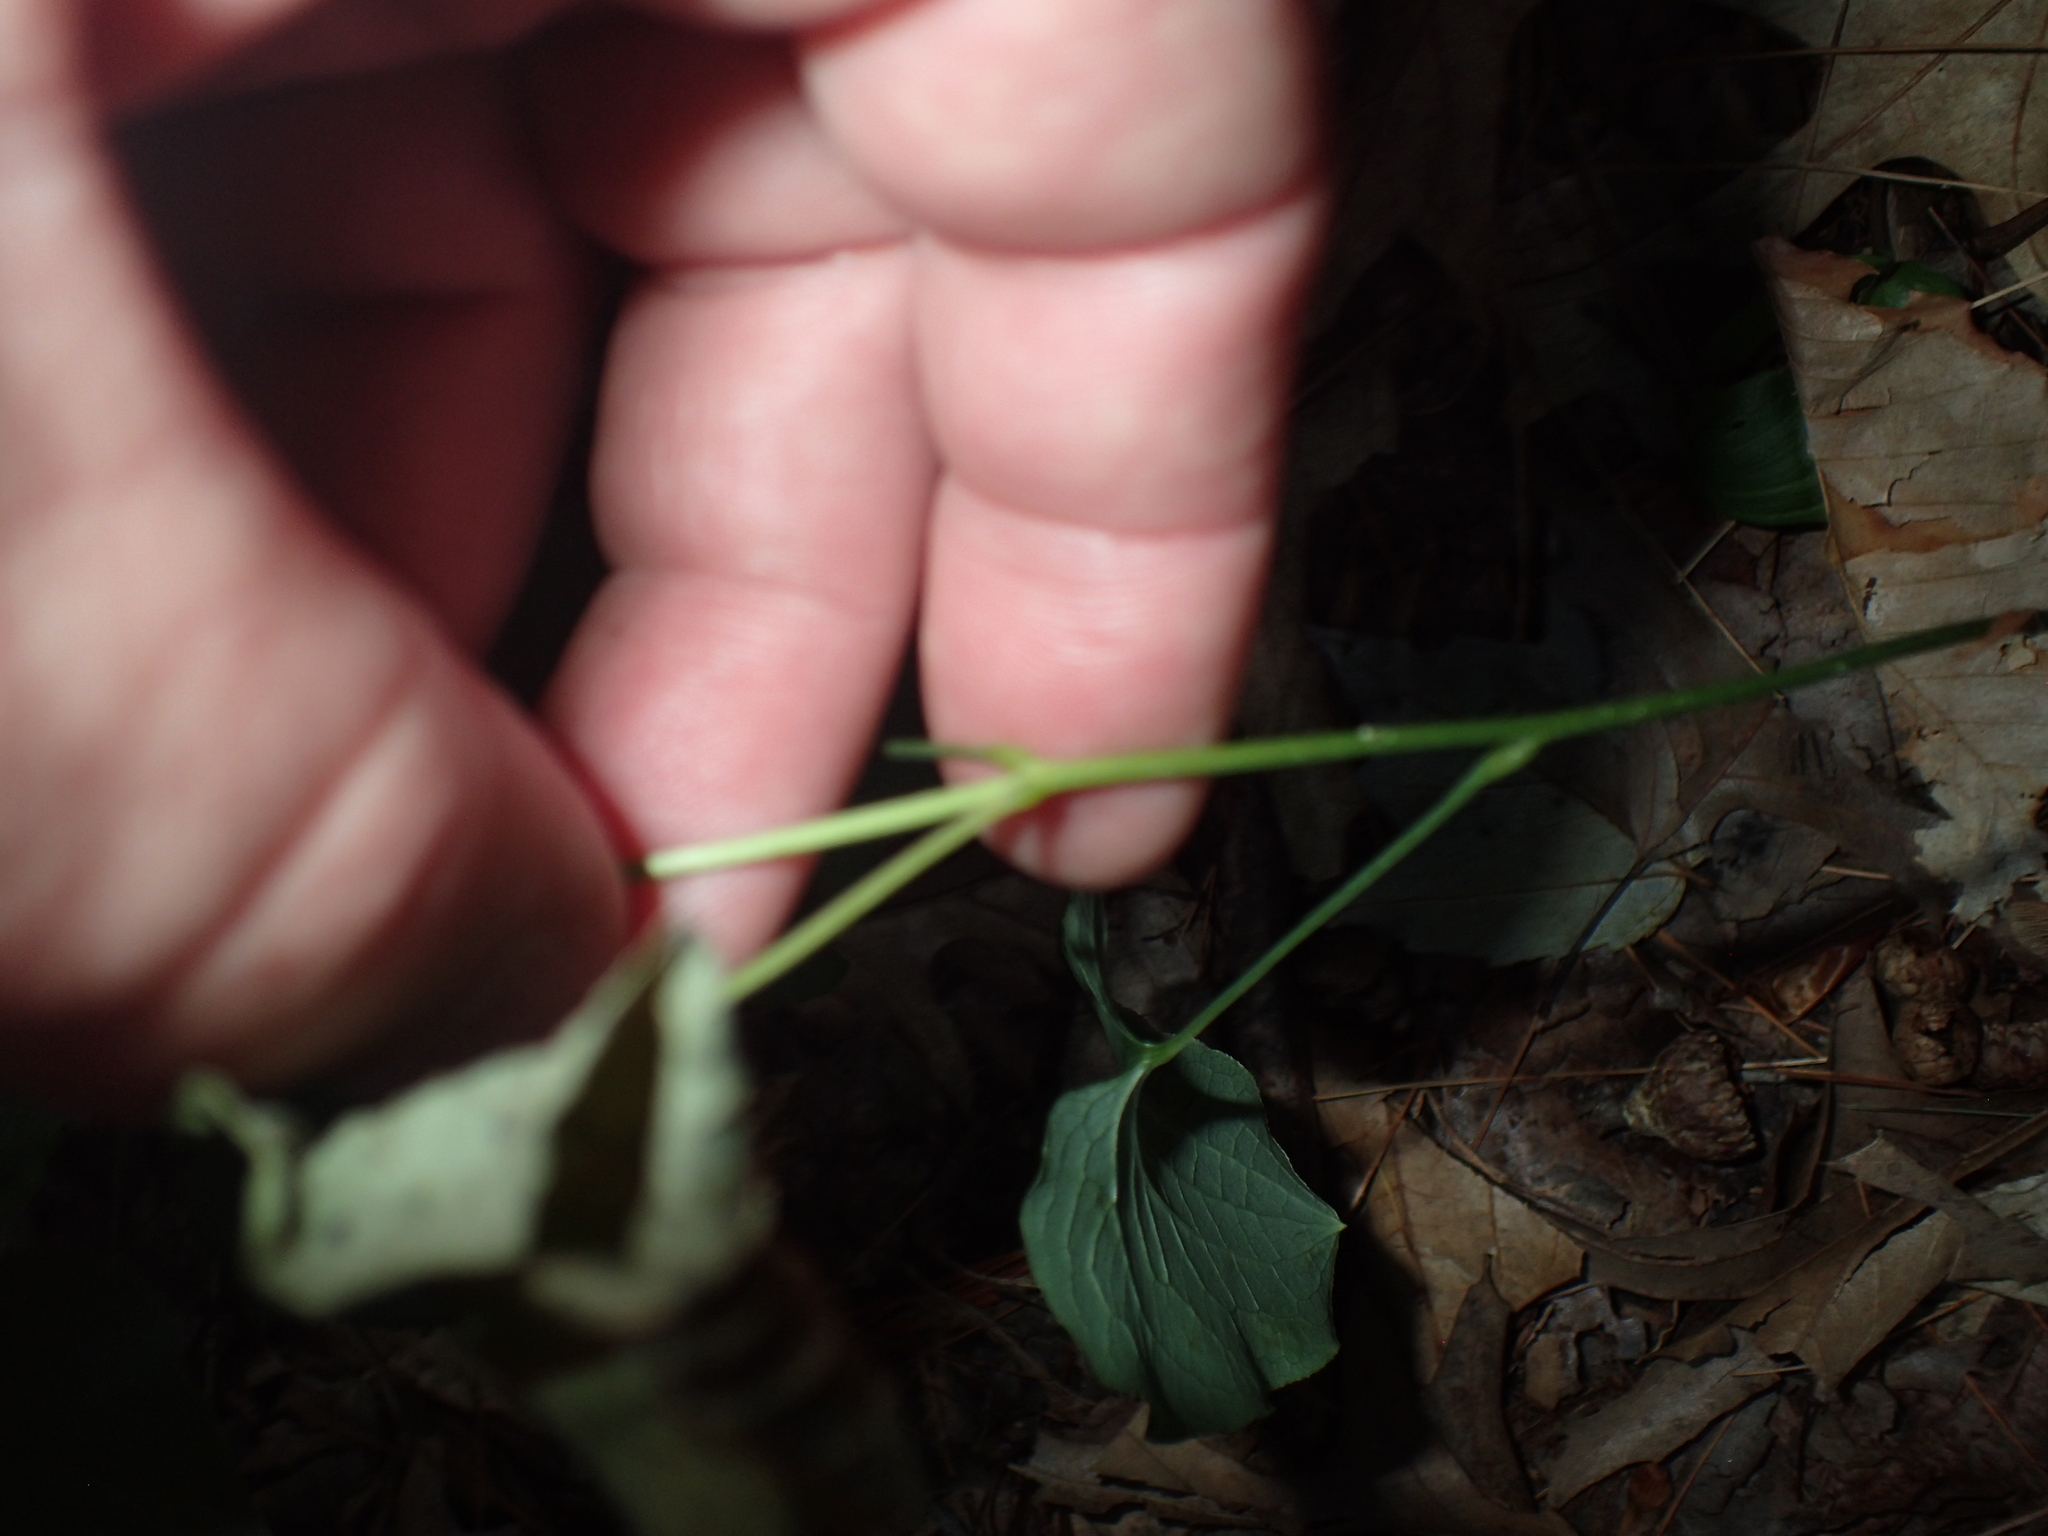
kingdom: Plantae
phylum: Tracheophyta
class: Liliopsida
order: Liliales
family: Smilacaceae
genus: Smilax
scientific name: Smilax herbacea
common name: Jacob's-ladder
